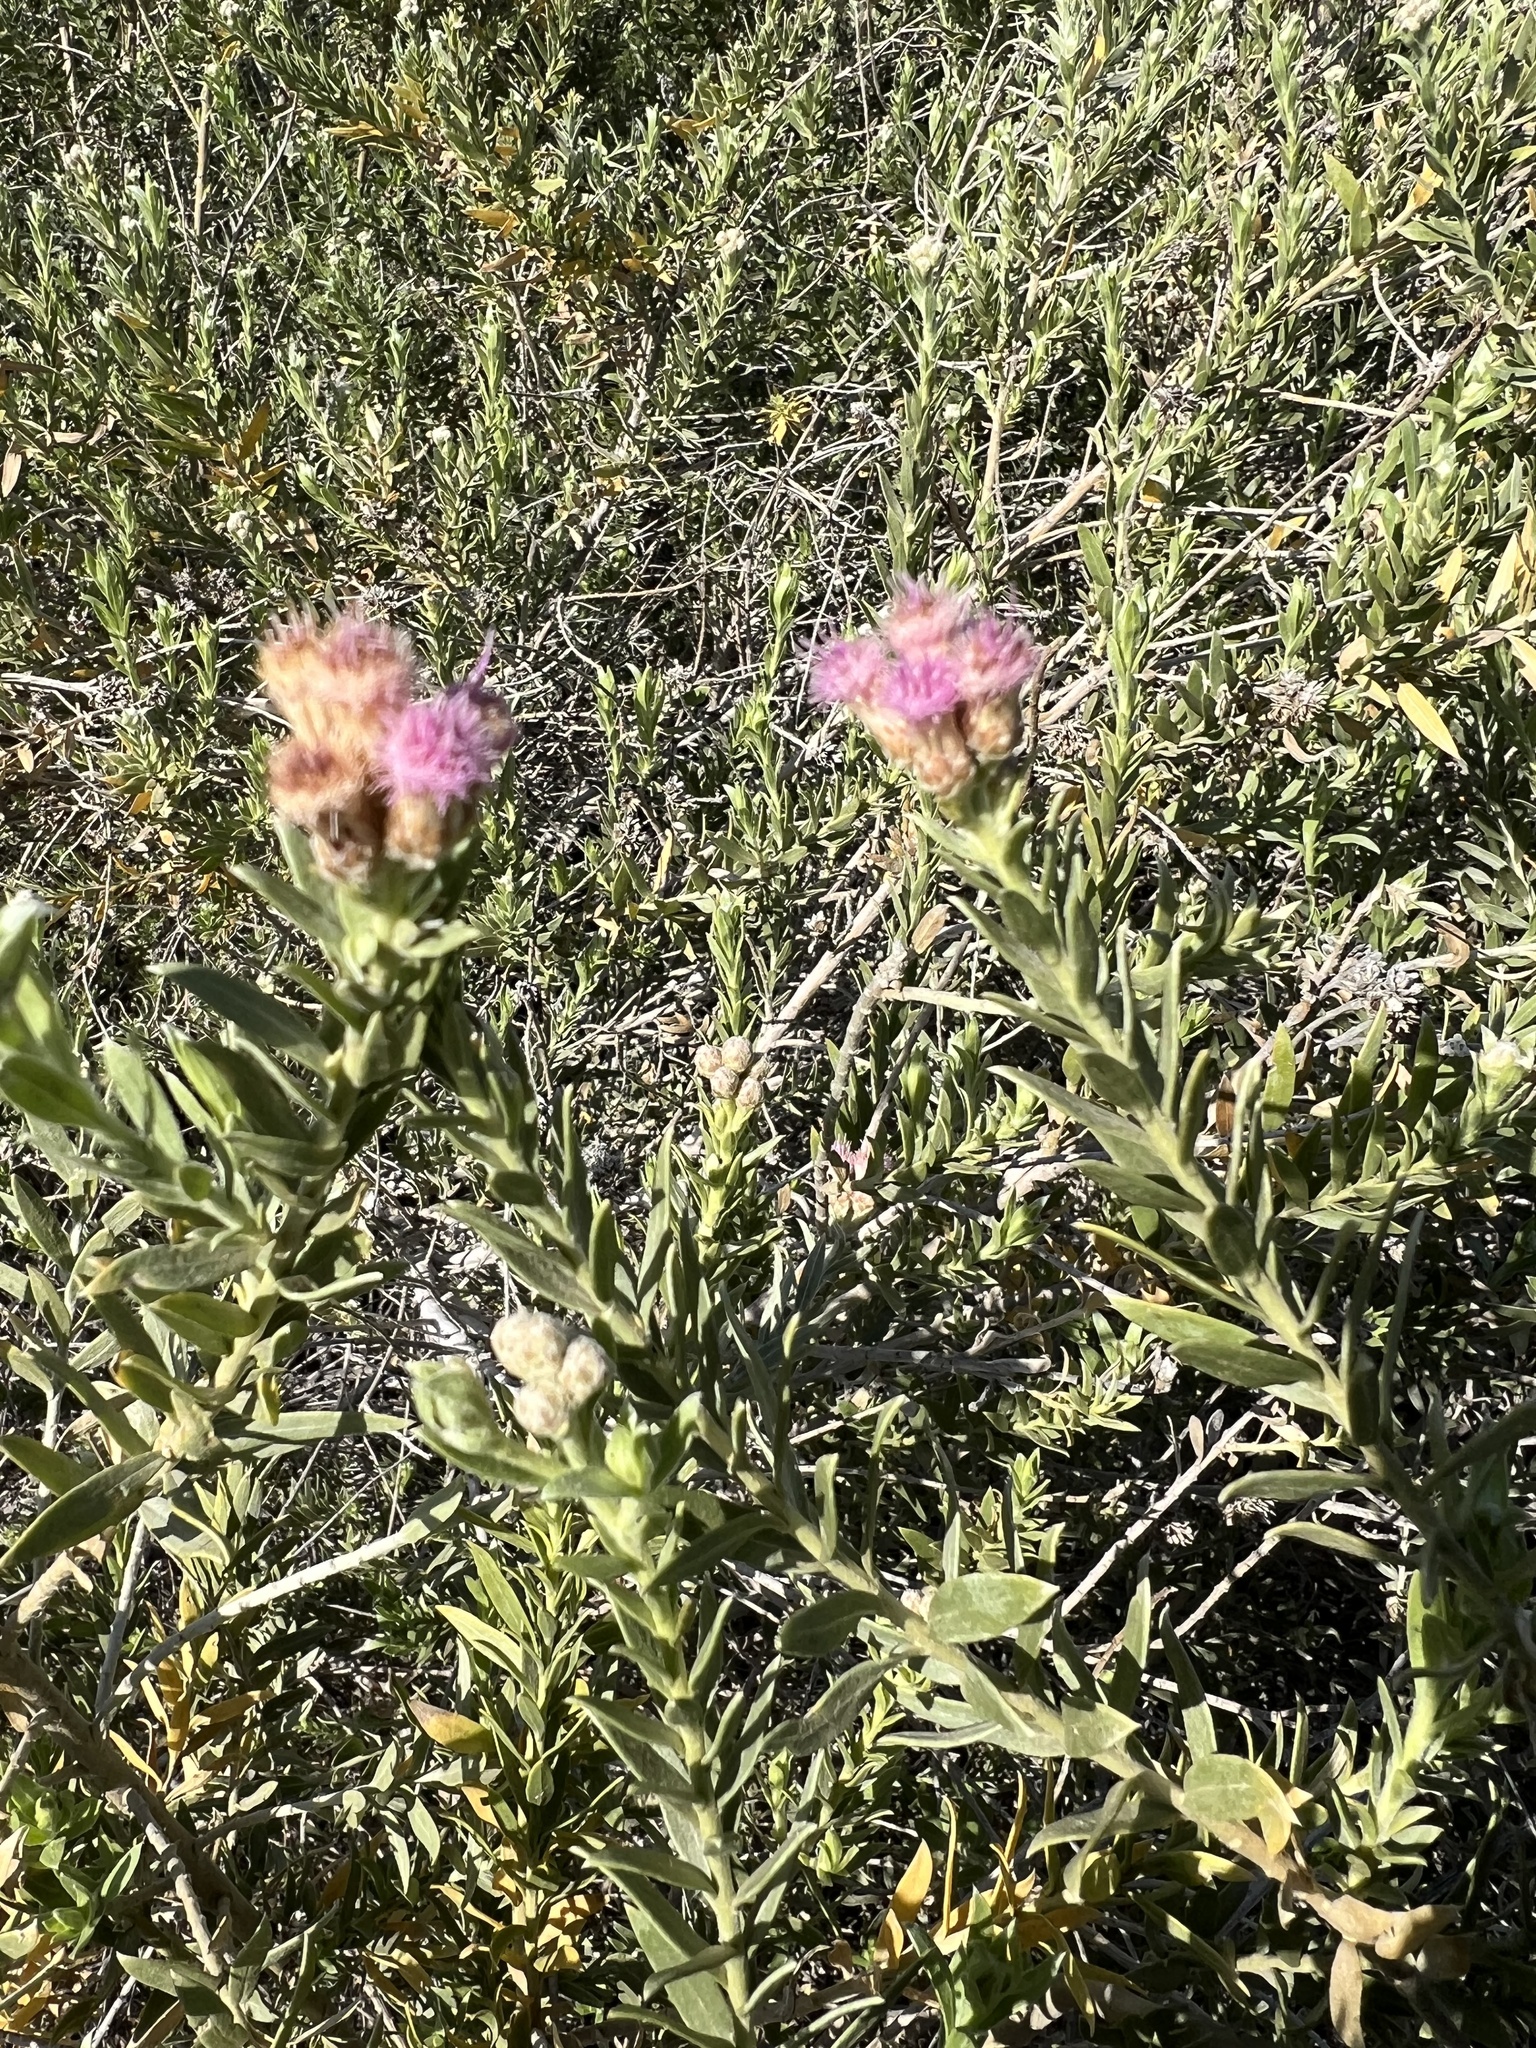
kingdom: Plantae
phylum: Tracheophyta
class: Magnoliopsida
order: Asterales
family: Asteraceae
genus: Pluchea
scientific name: Pluchea sericea
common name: Arrow-weed
